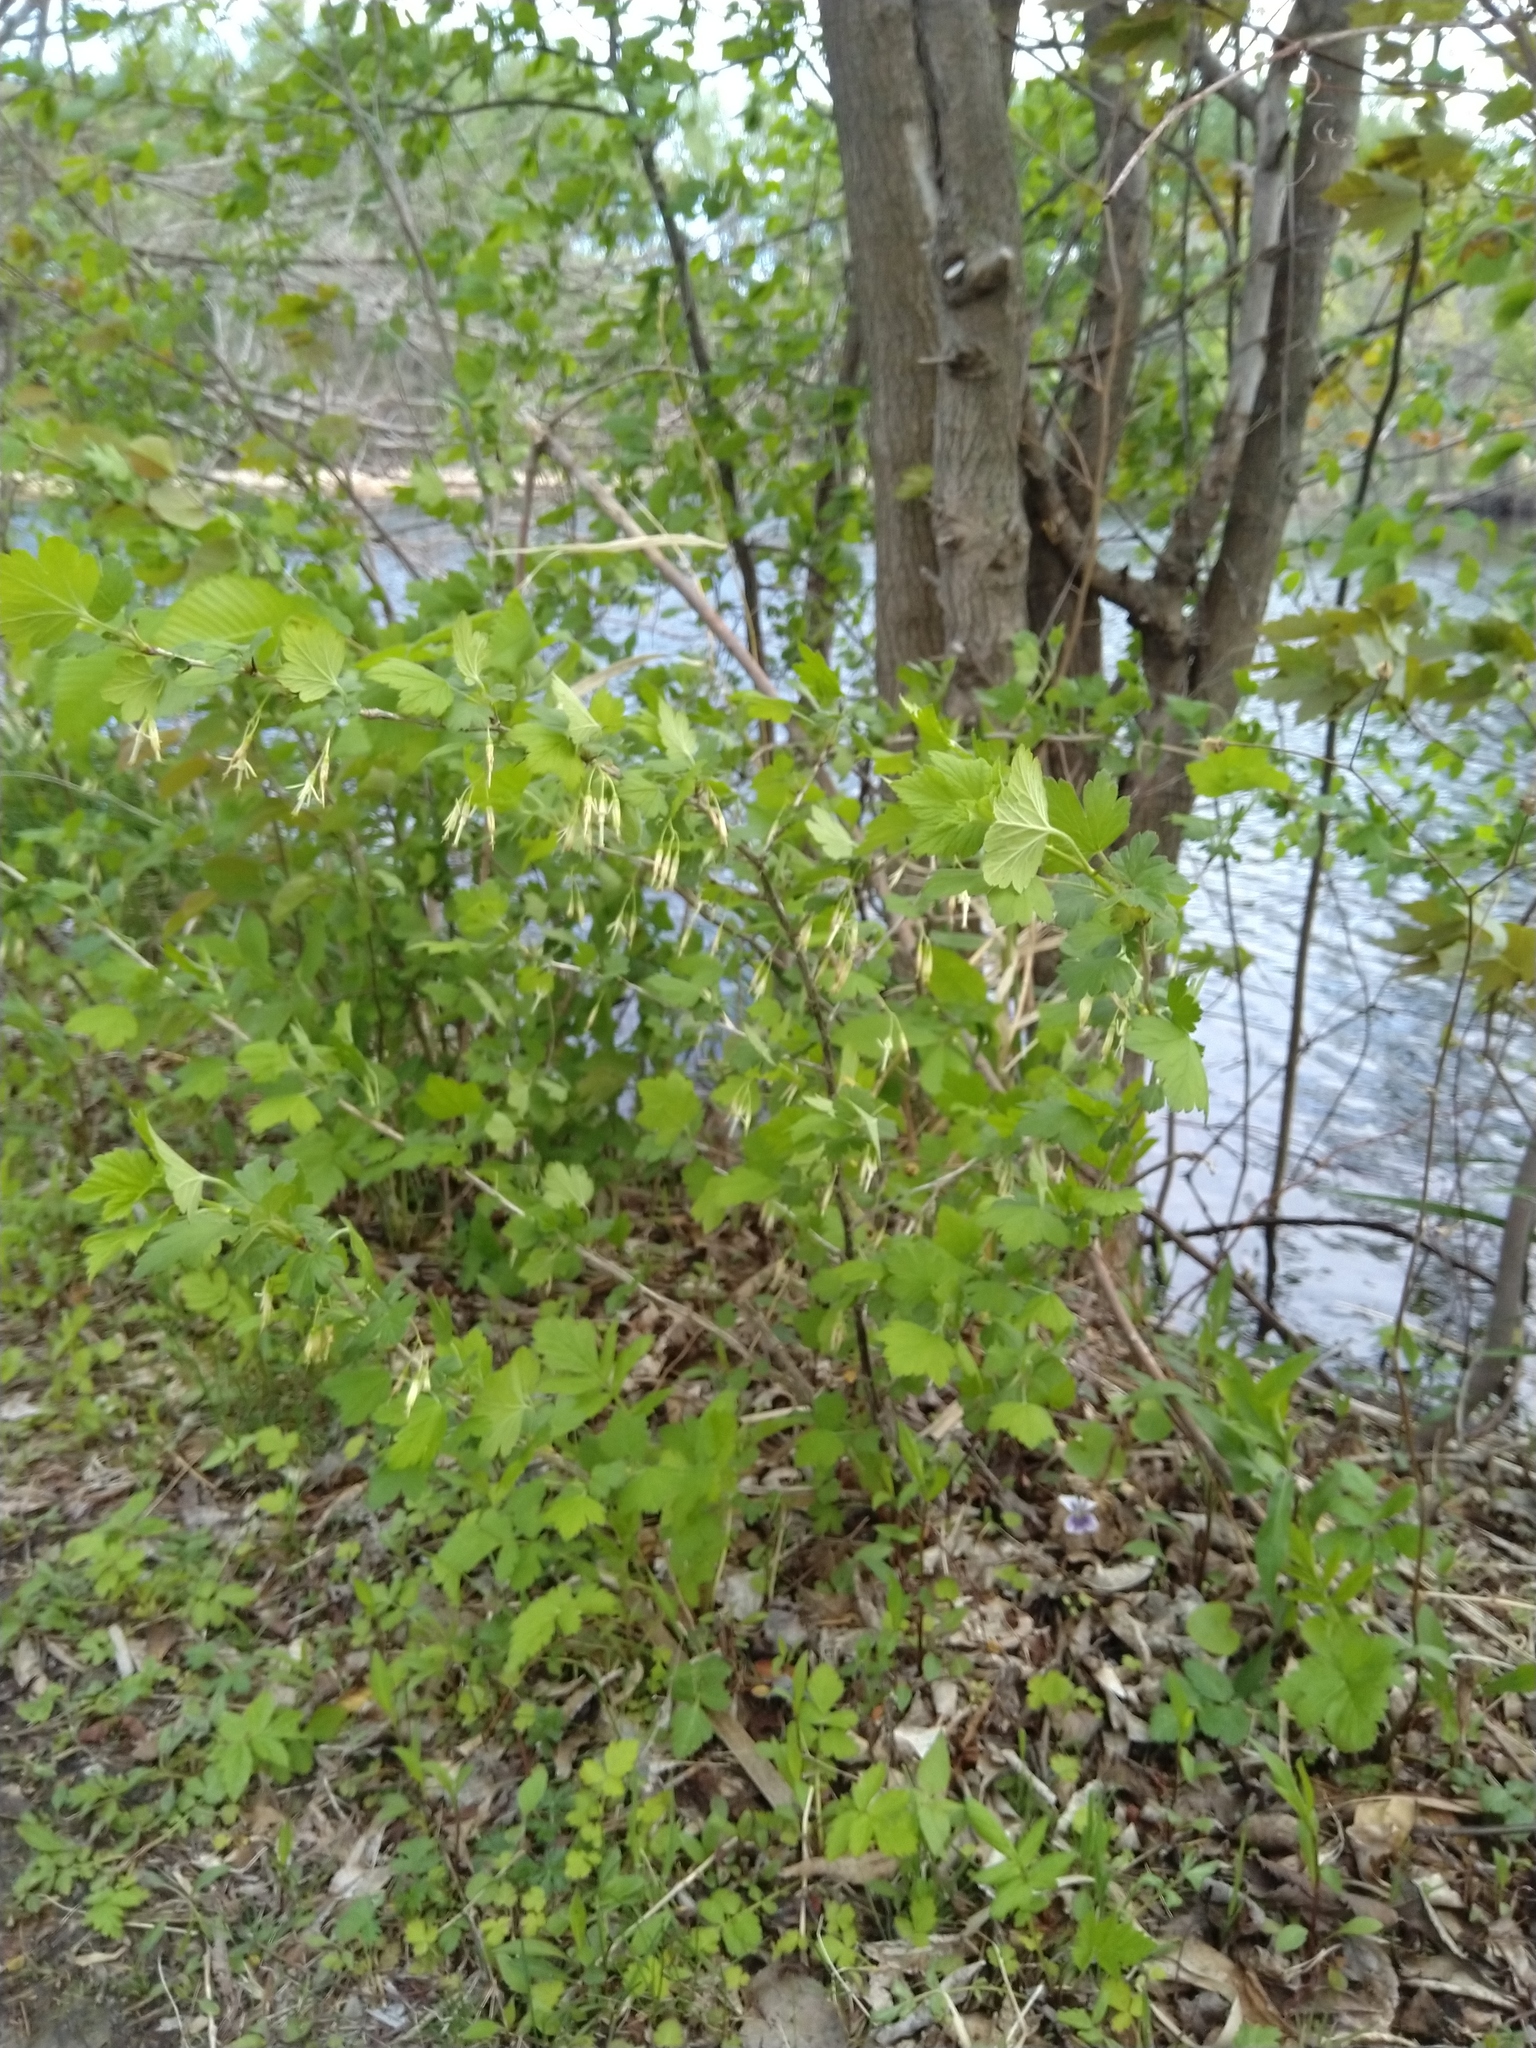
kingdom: Plantae
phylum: Tracheophyta
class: Magnoliopsida
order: Saxifragales
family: Grossulariaceae
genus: Ribes
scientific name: Ribes missouriense
